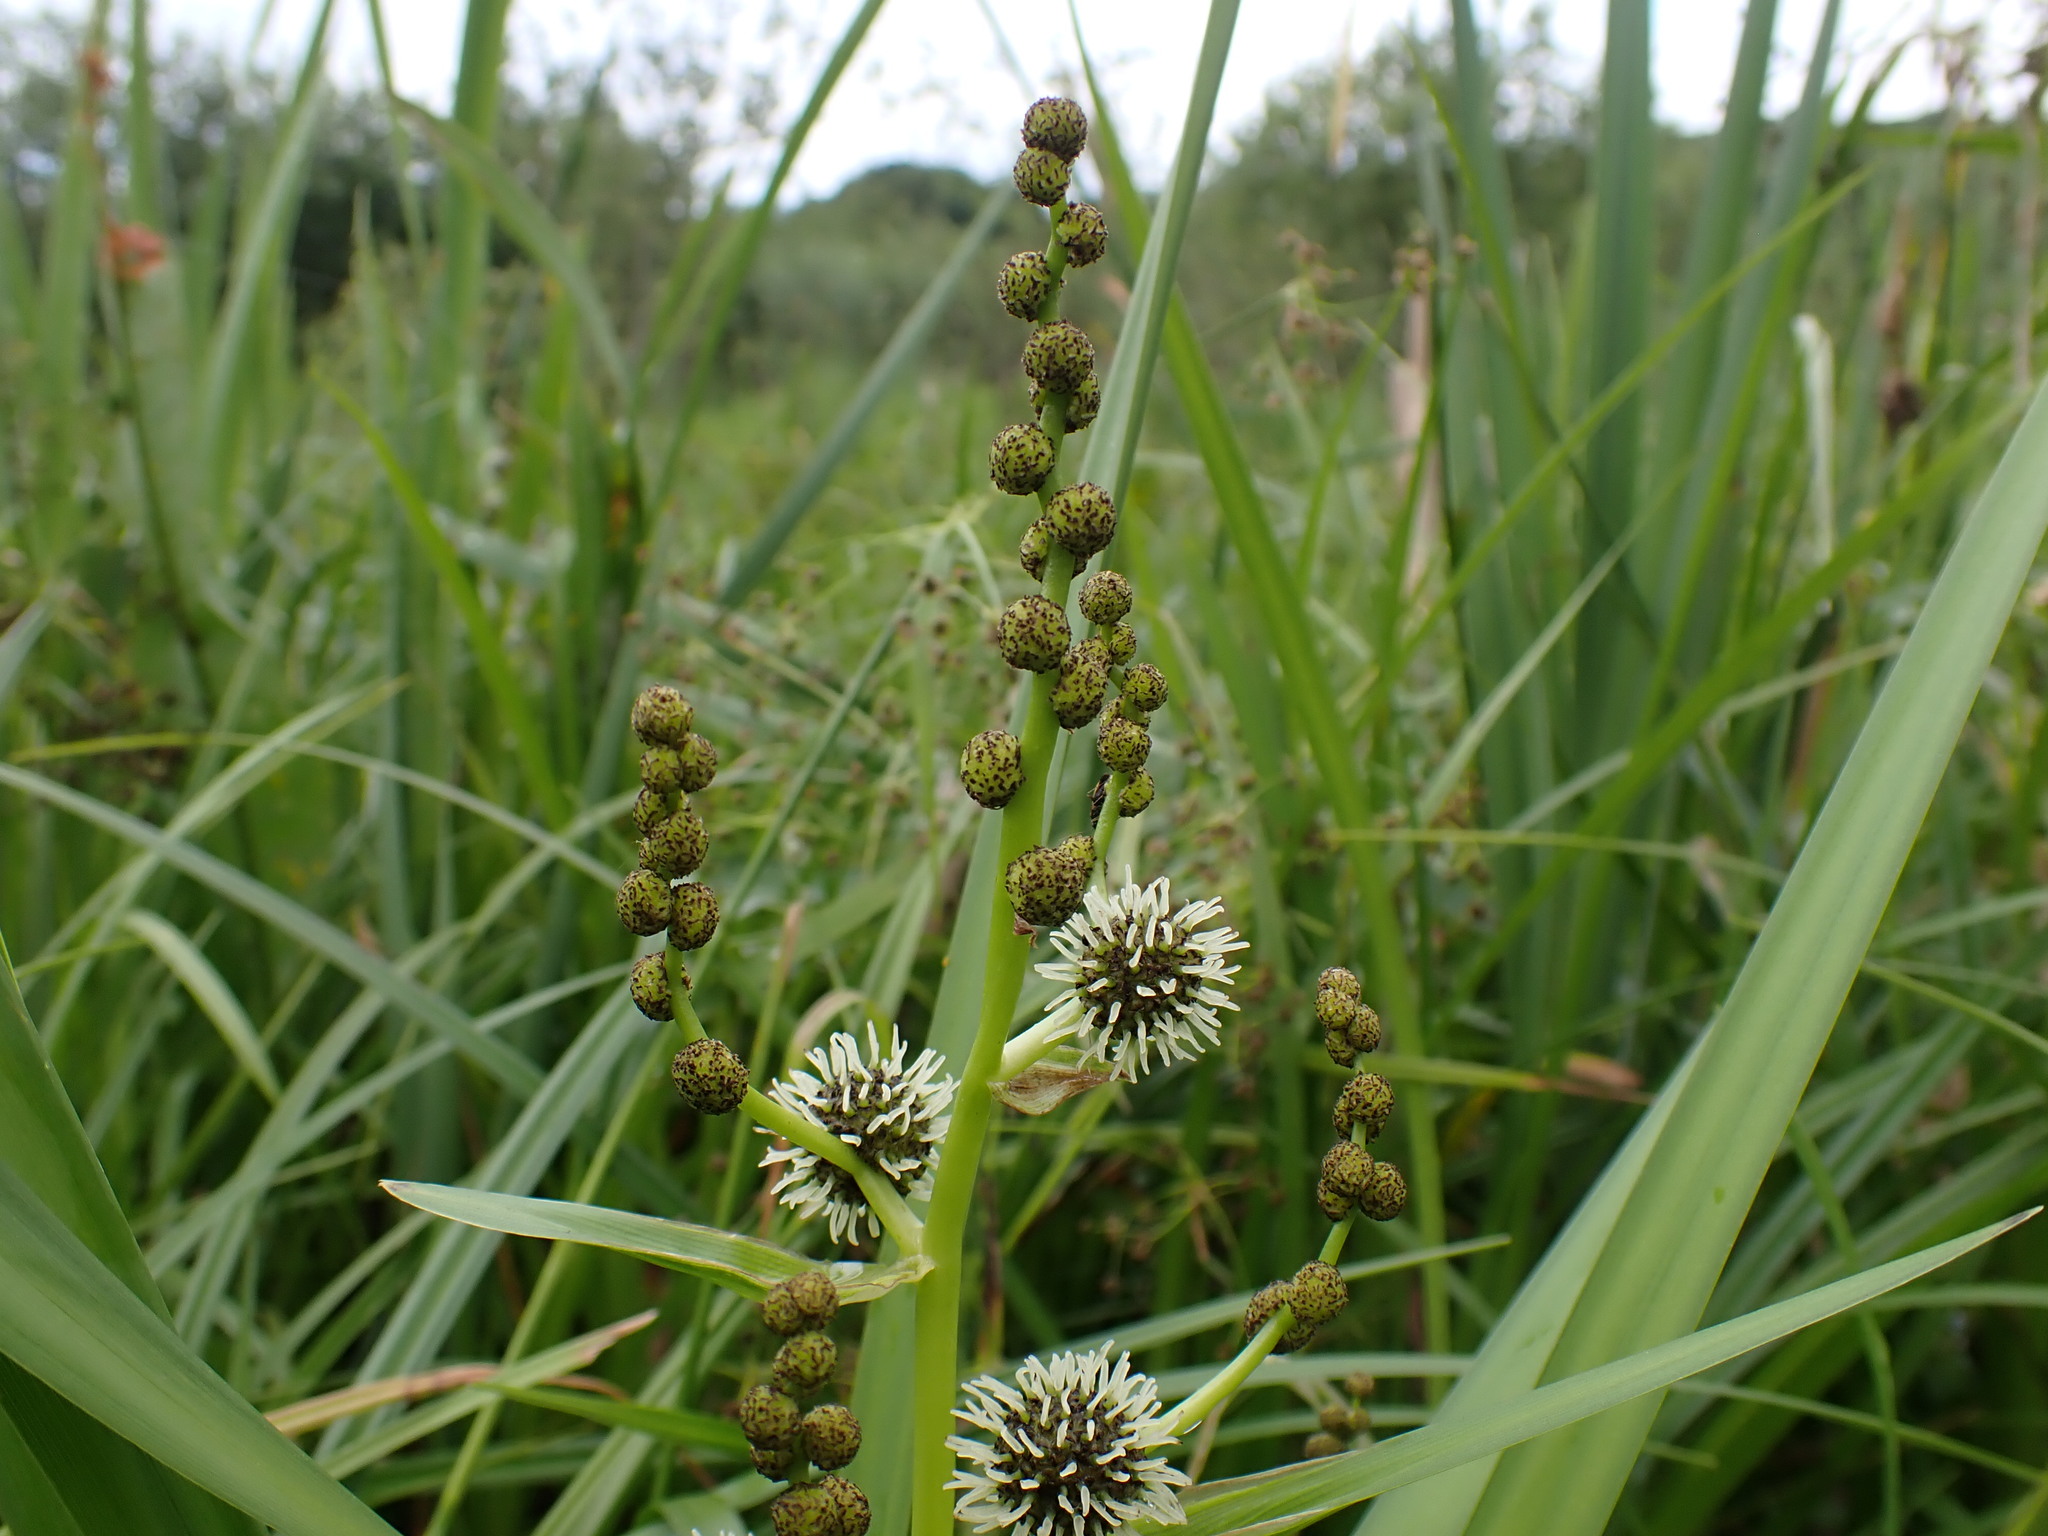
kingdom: Plantae
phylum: Tracheophyta
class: Liliopsida
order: Poales
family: Typhaceae
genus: Sparganium
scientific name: Sparganium erectum
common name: Branched bur-reed
